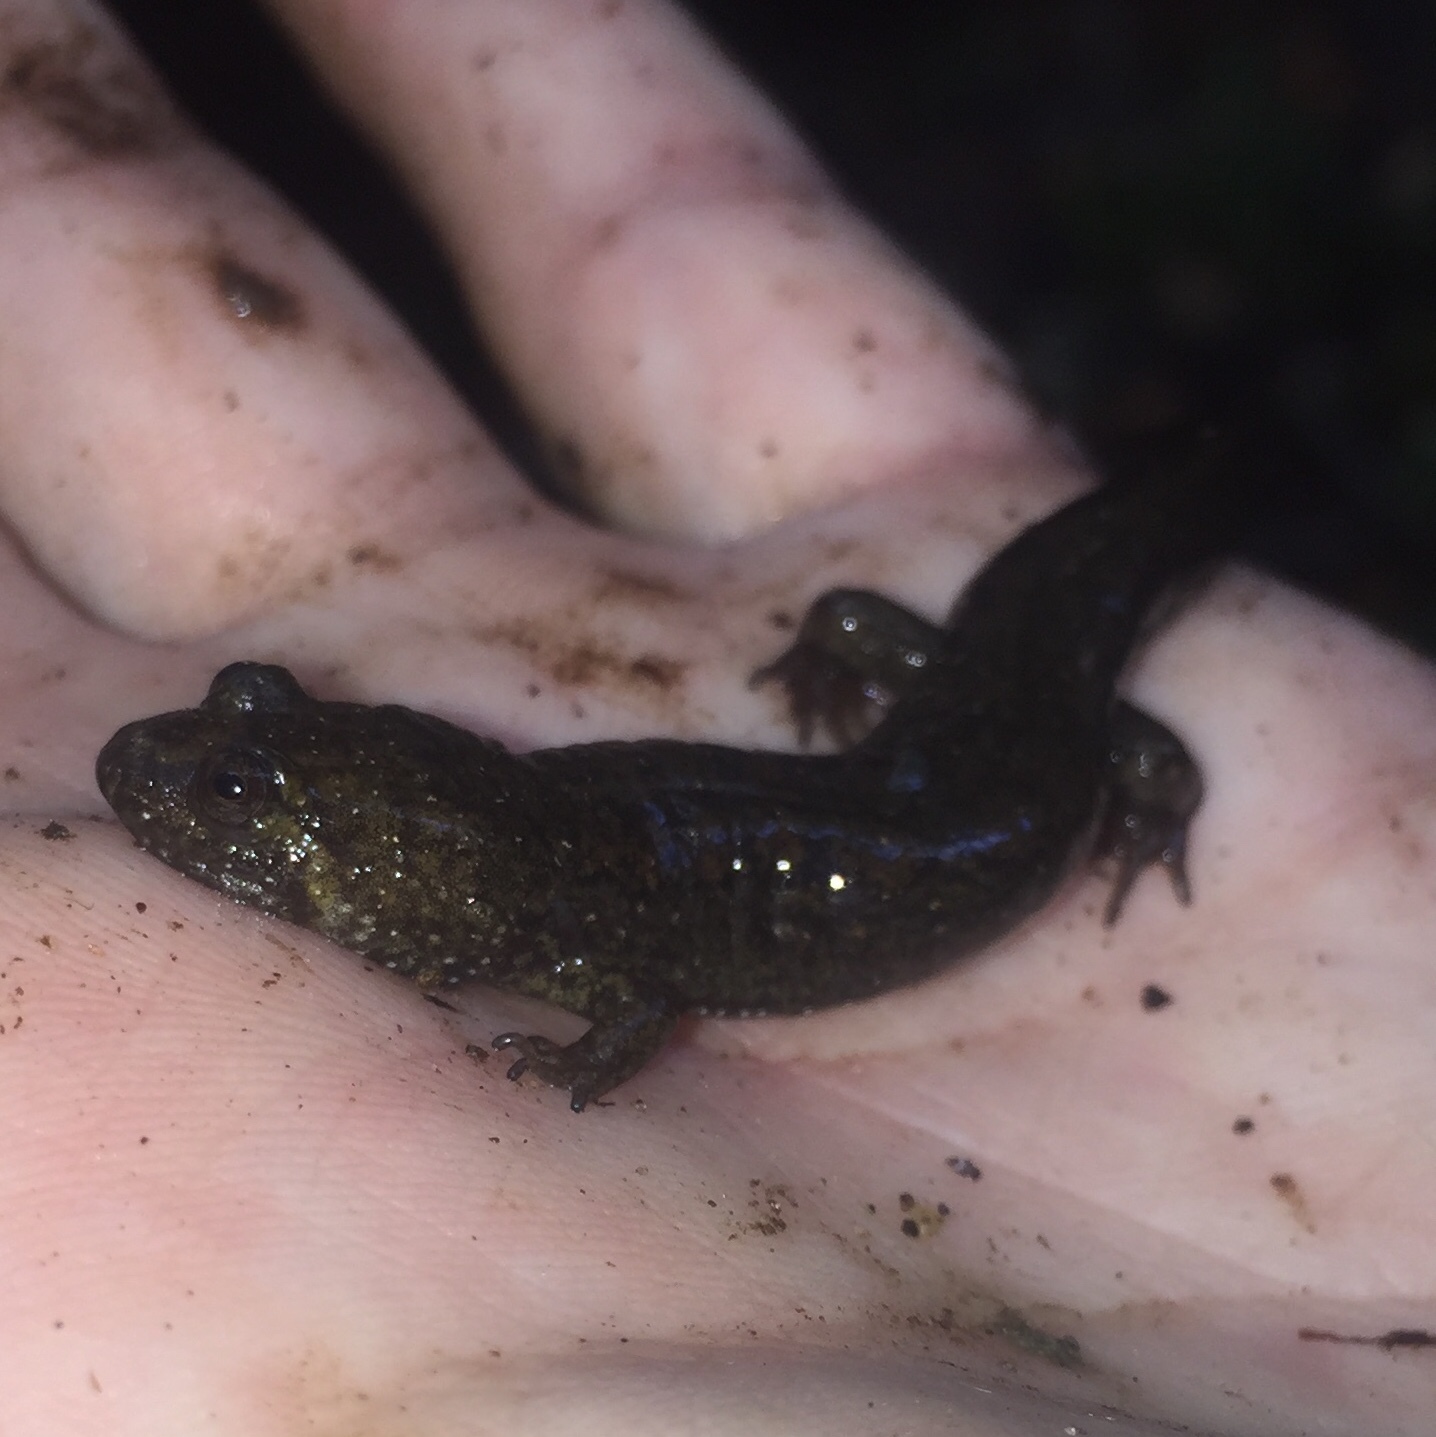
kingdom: Animalia
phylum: Chordata
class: Amphibia
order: Caudata
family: Plethodontidae
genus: Desmognathus
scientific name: Desmognathus
